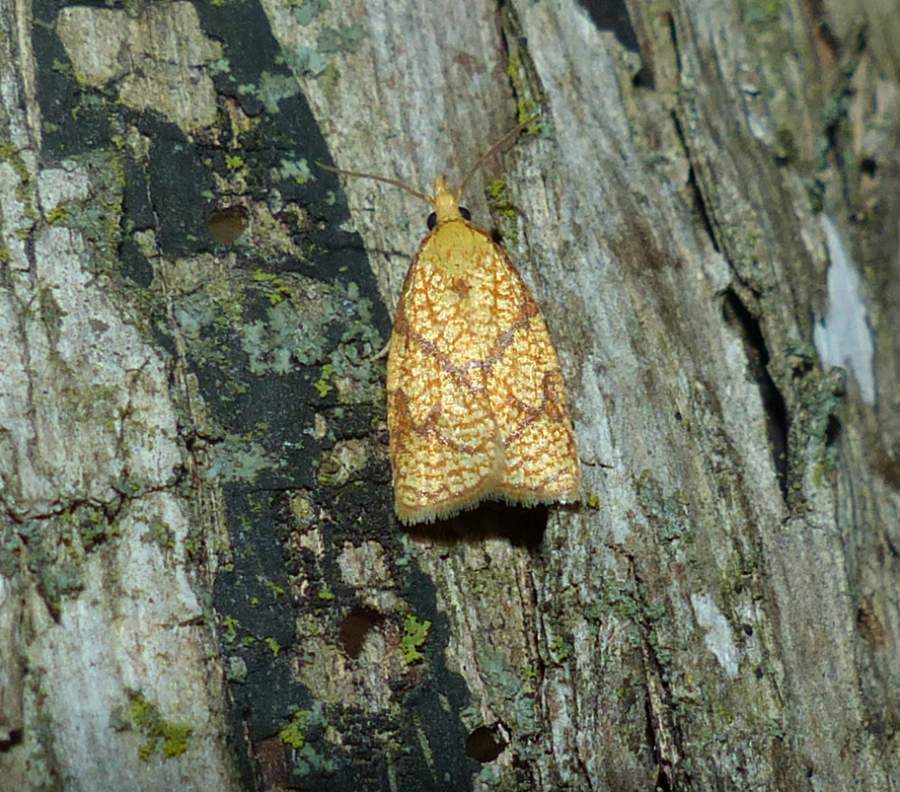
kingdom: Animalia
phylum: Arthropoda
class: Insecta
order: Lepidoptera
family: Tortricidae
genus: Cenopis
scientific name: Cenopis reticulatana
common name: Reticulated fruitworm moth
